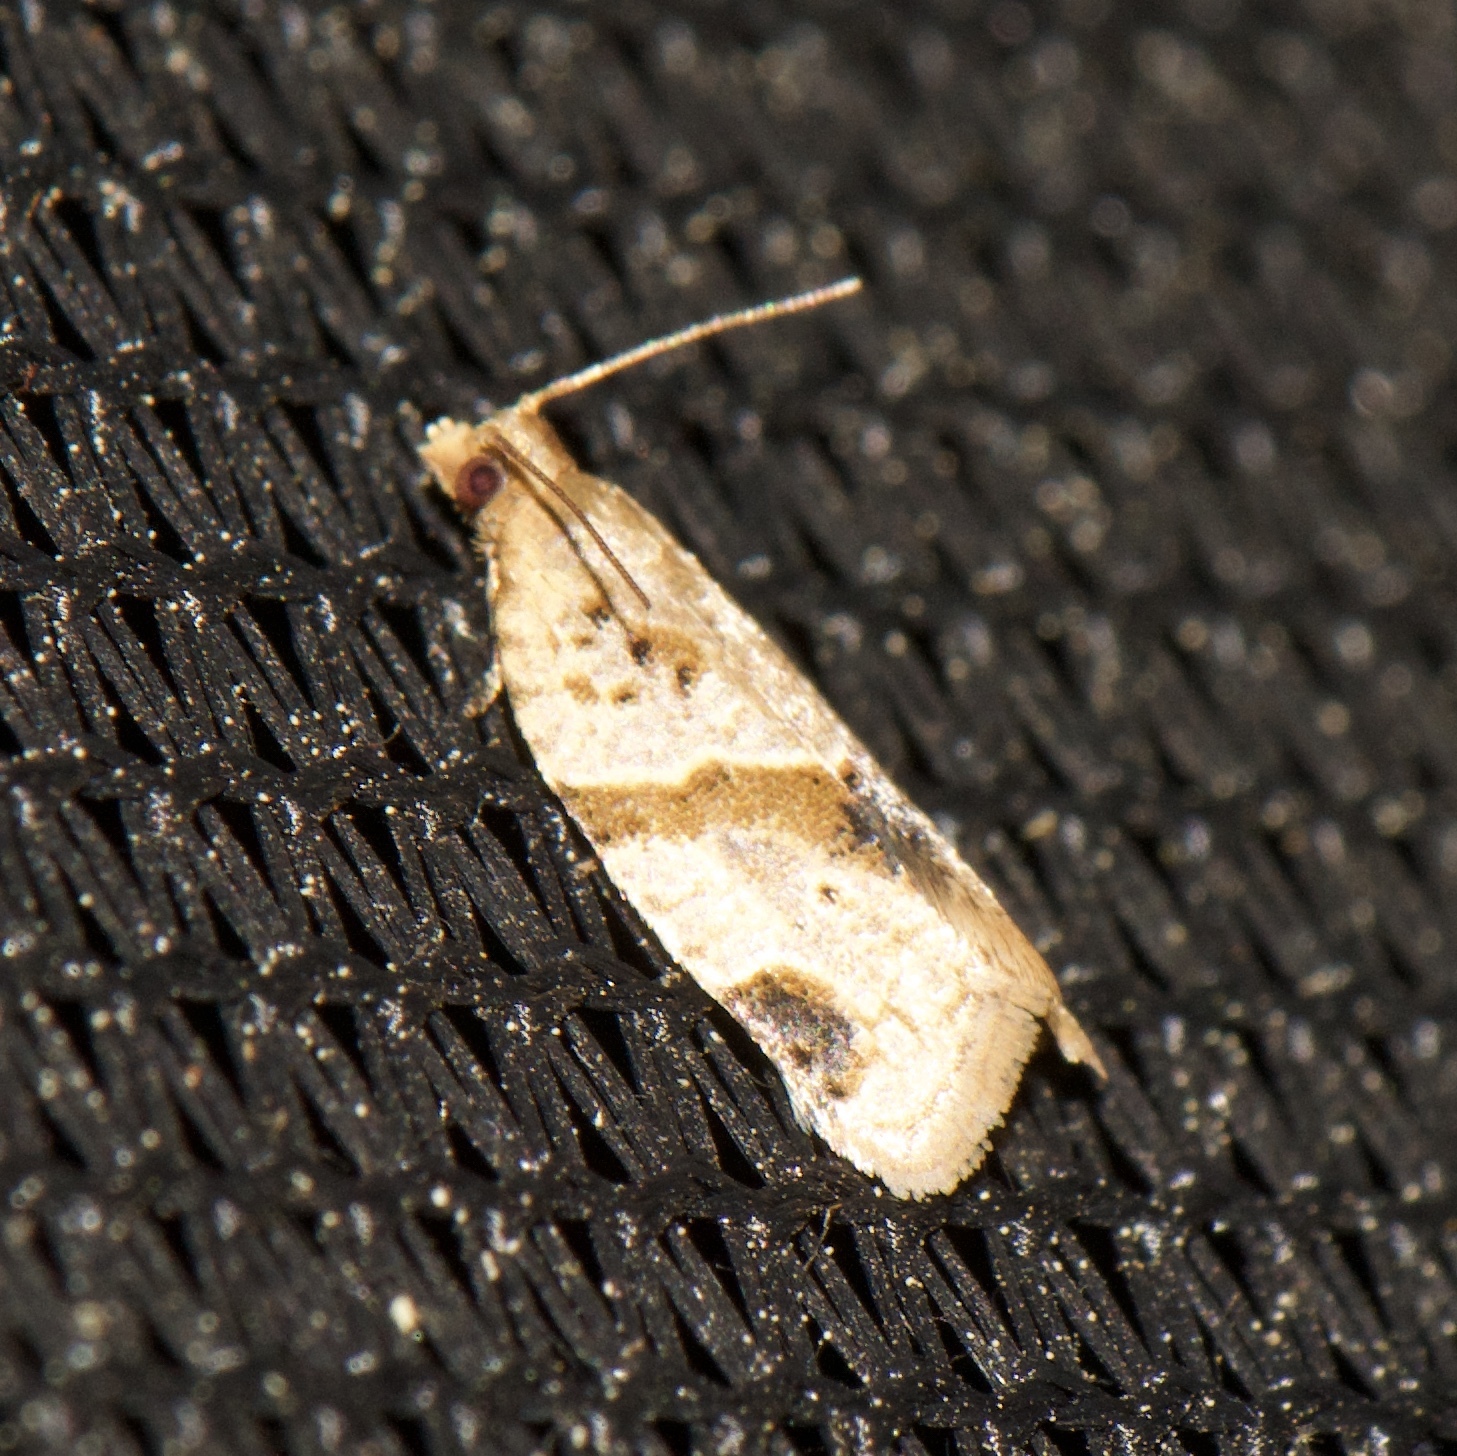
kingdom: Animalia
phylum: Arthropoda
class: Insecta
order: Lepidoptera
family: Tortricidae
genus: Clepsis
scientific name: Clepsis peritana
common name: Garden tortrix
